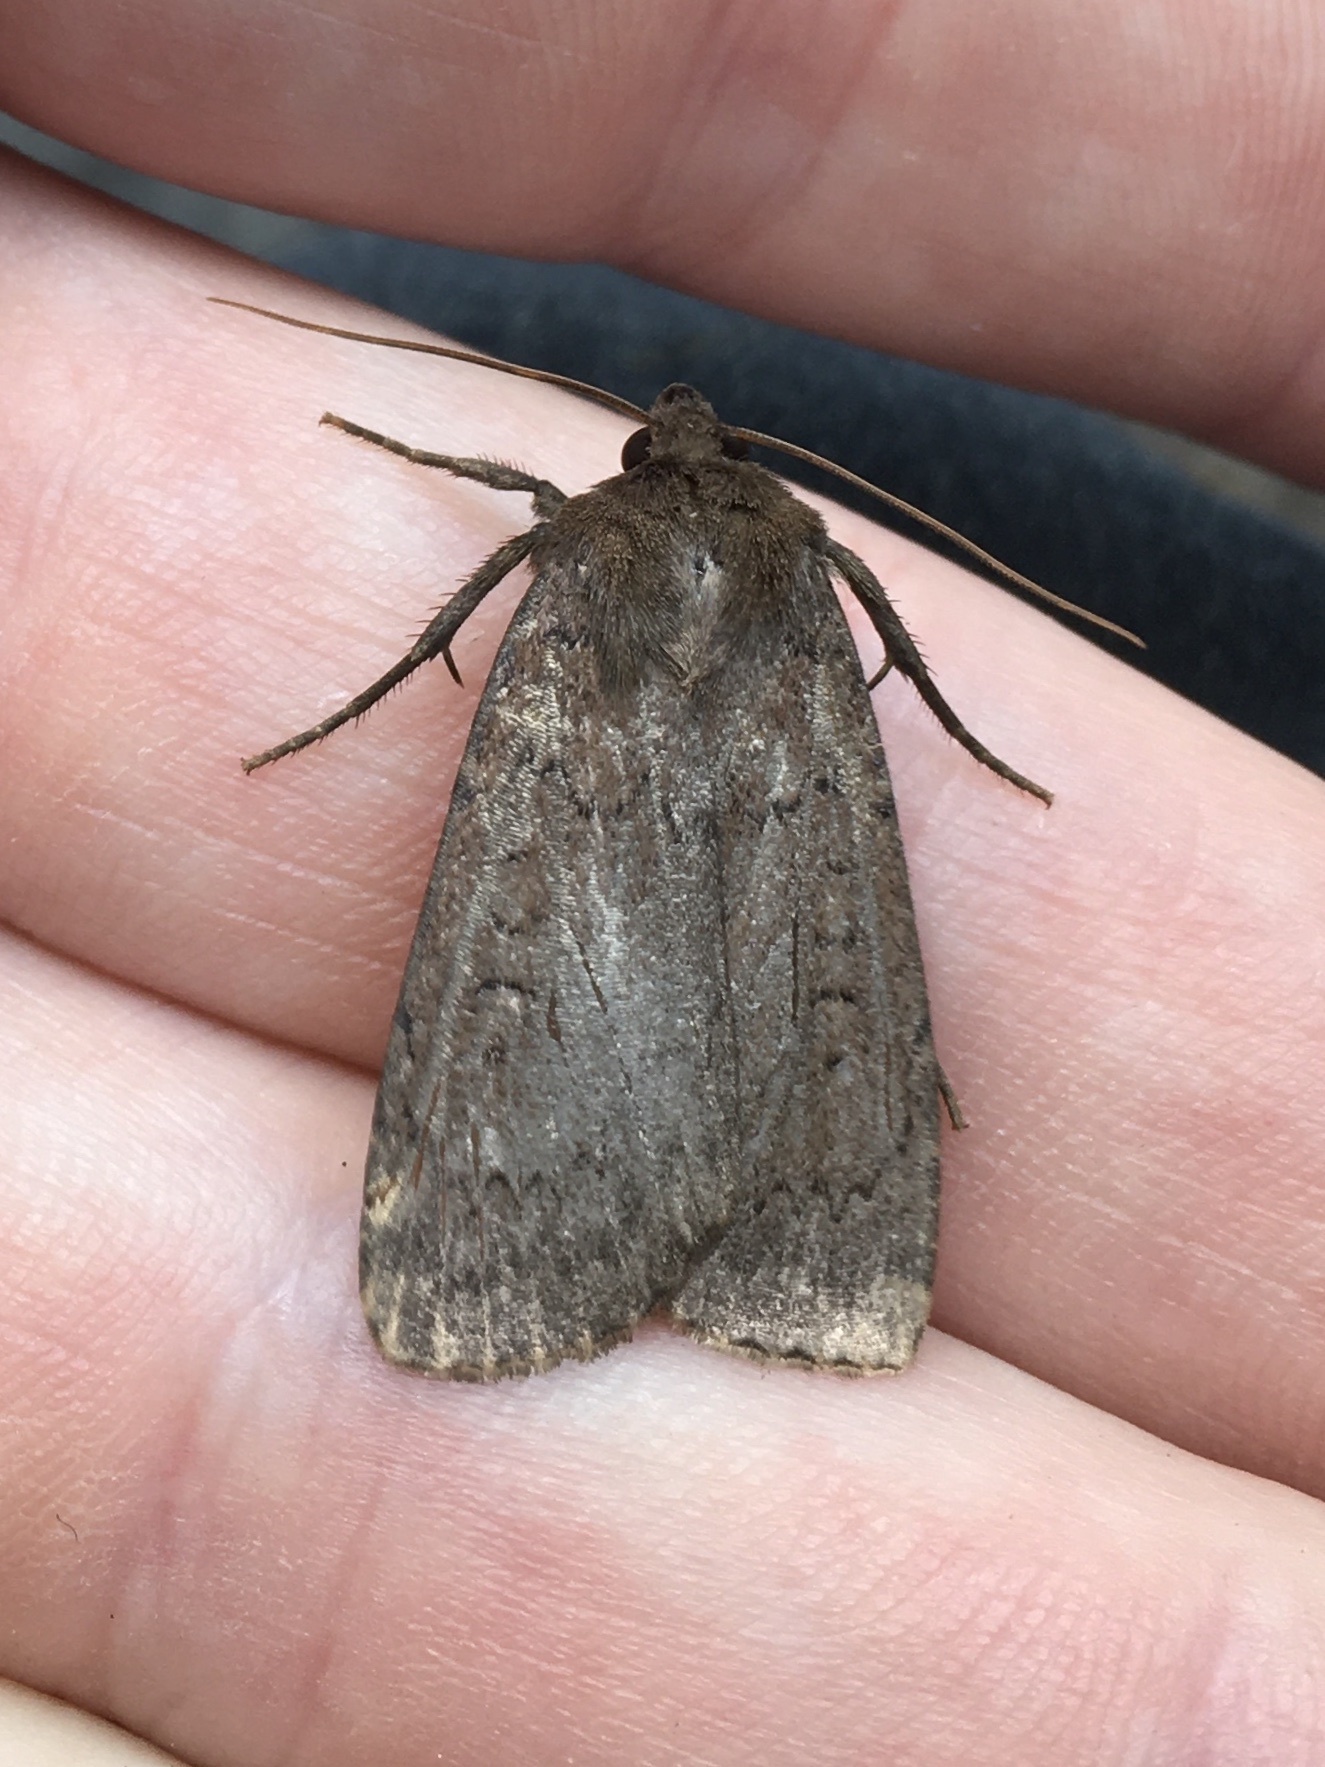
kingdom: Animalia
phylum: Arthropoda
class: Insecta
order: Lepidoptera
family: Noctuidae
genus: Graphiphora
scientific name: Graphiphora augur
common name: Double dart
